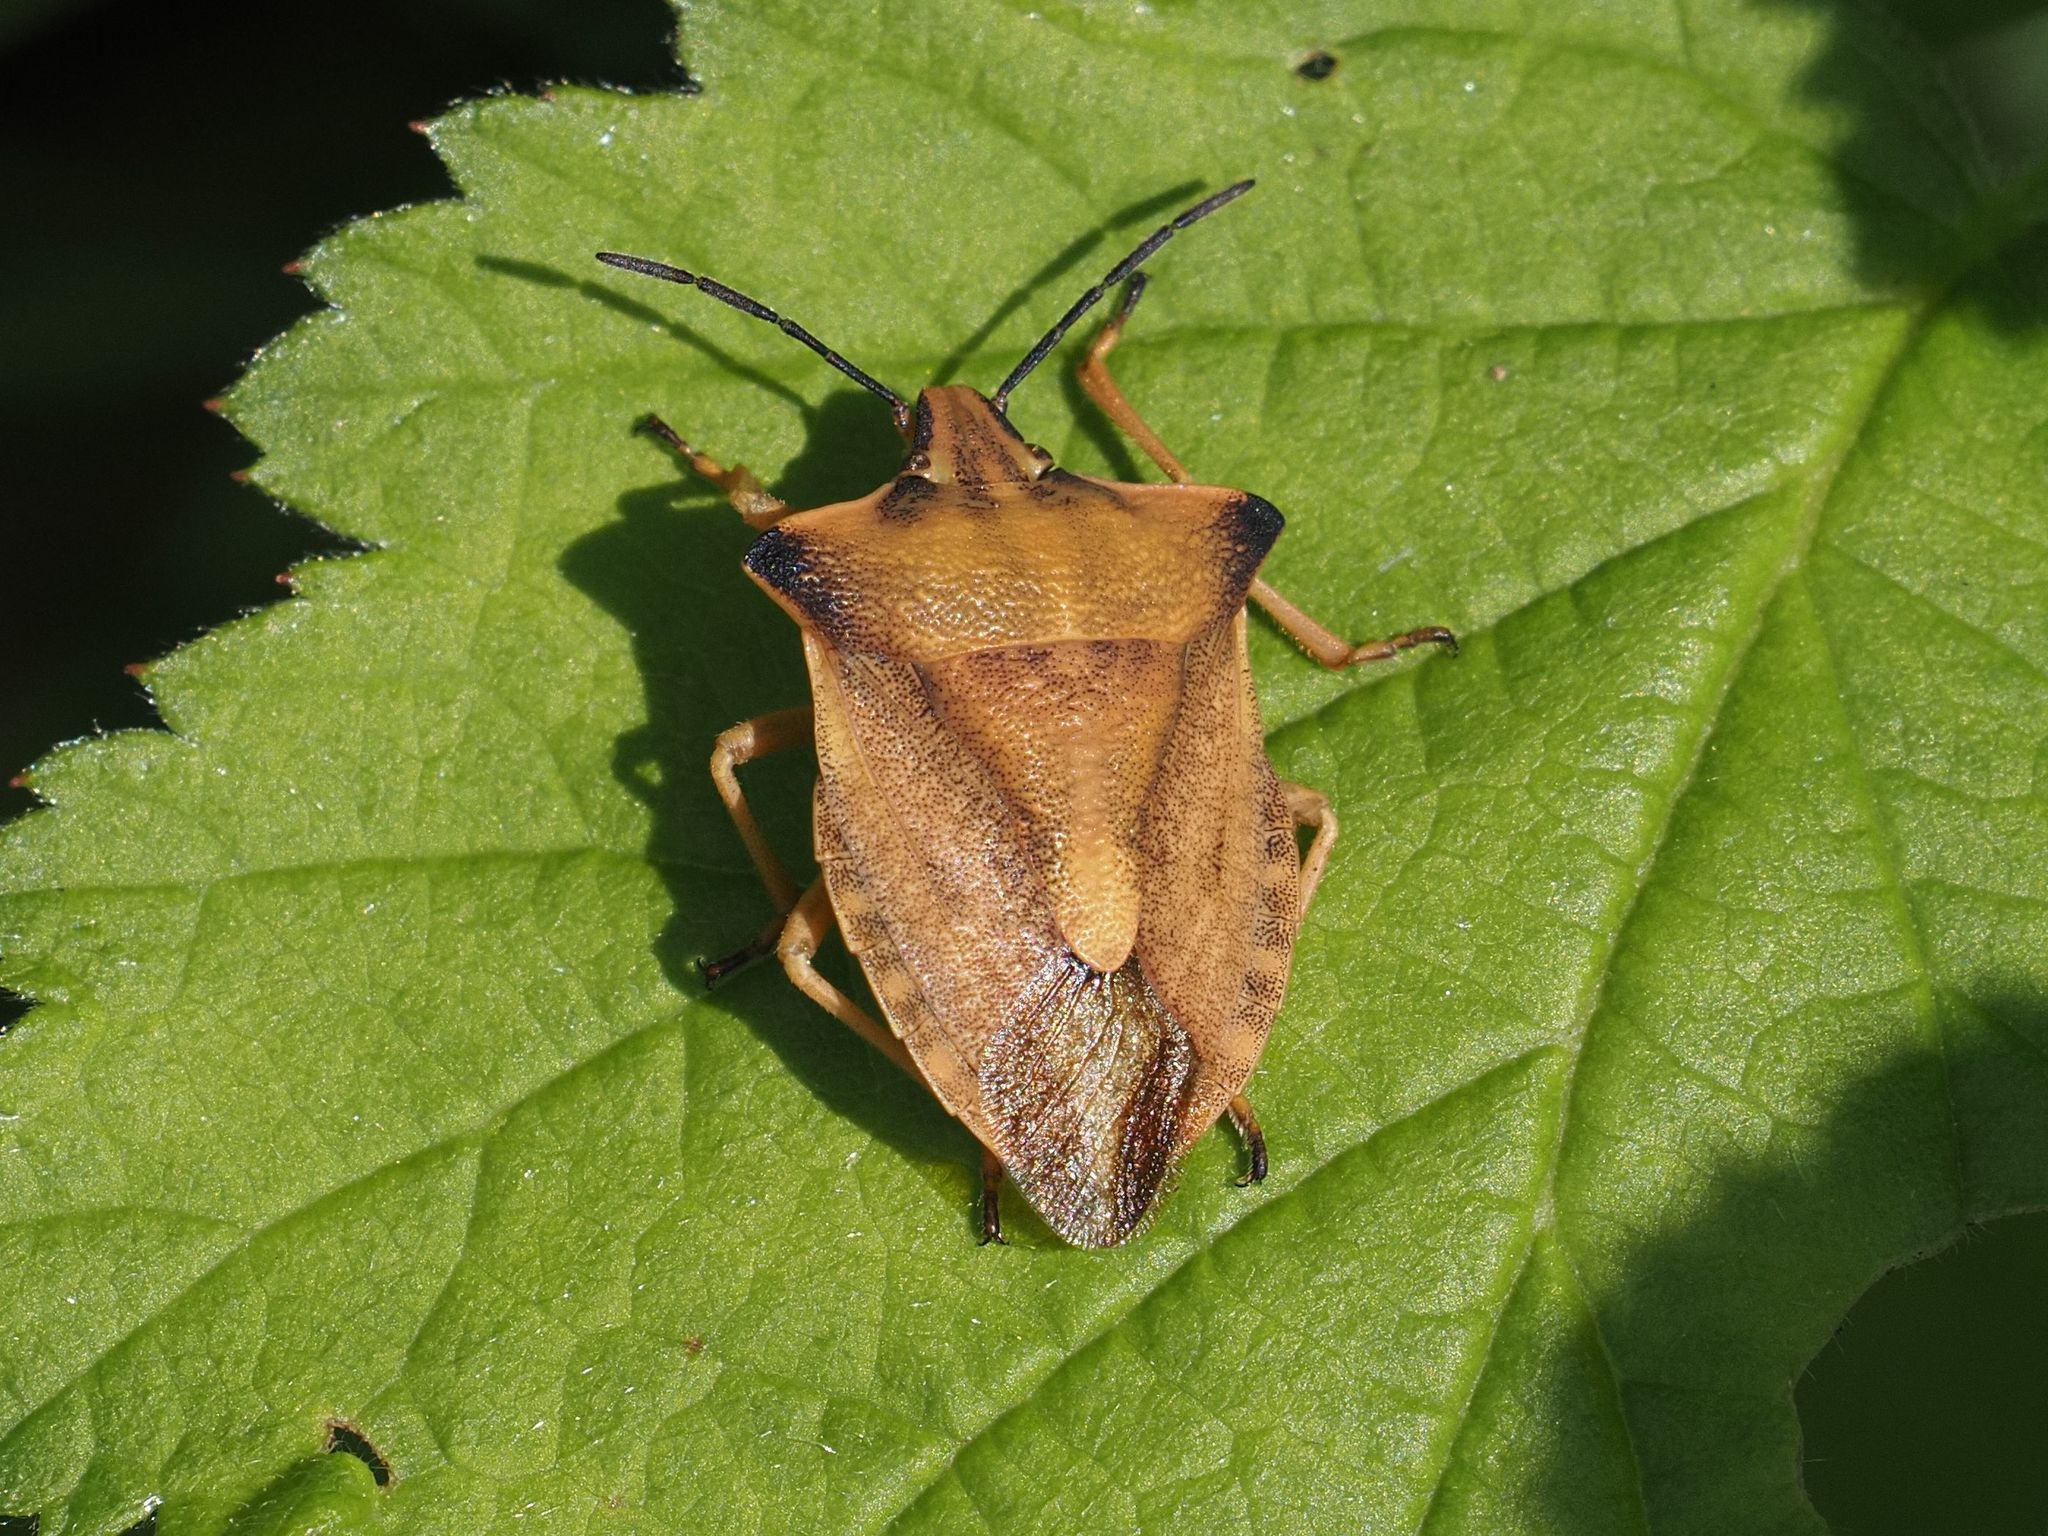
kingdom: Animalia
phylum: Arthropoda
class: Insecta
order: Hemiptera
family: Pentatomidae
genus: Carpocoris
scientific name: Carpocoris fuscispinus
